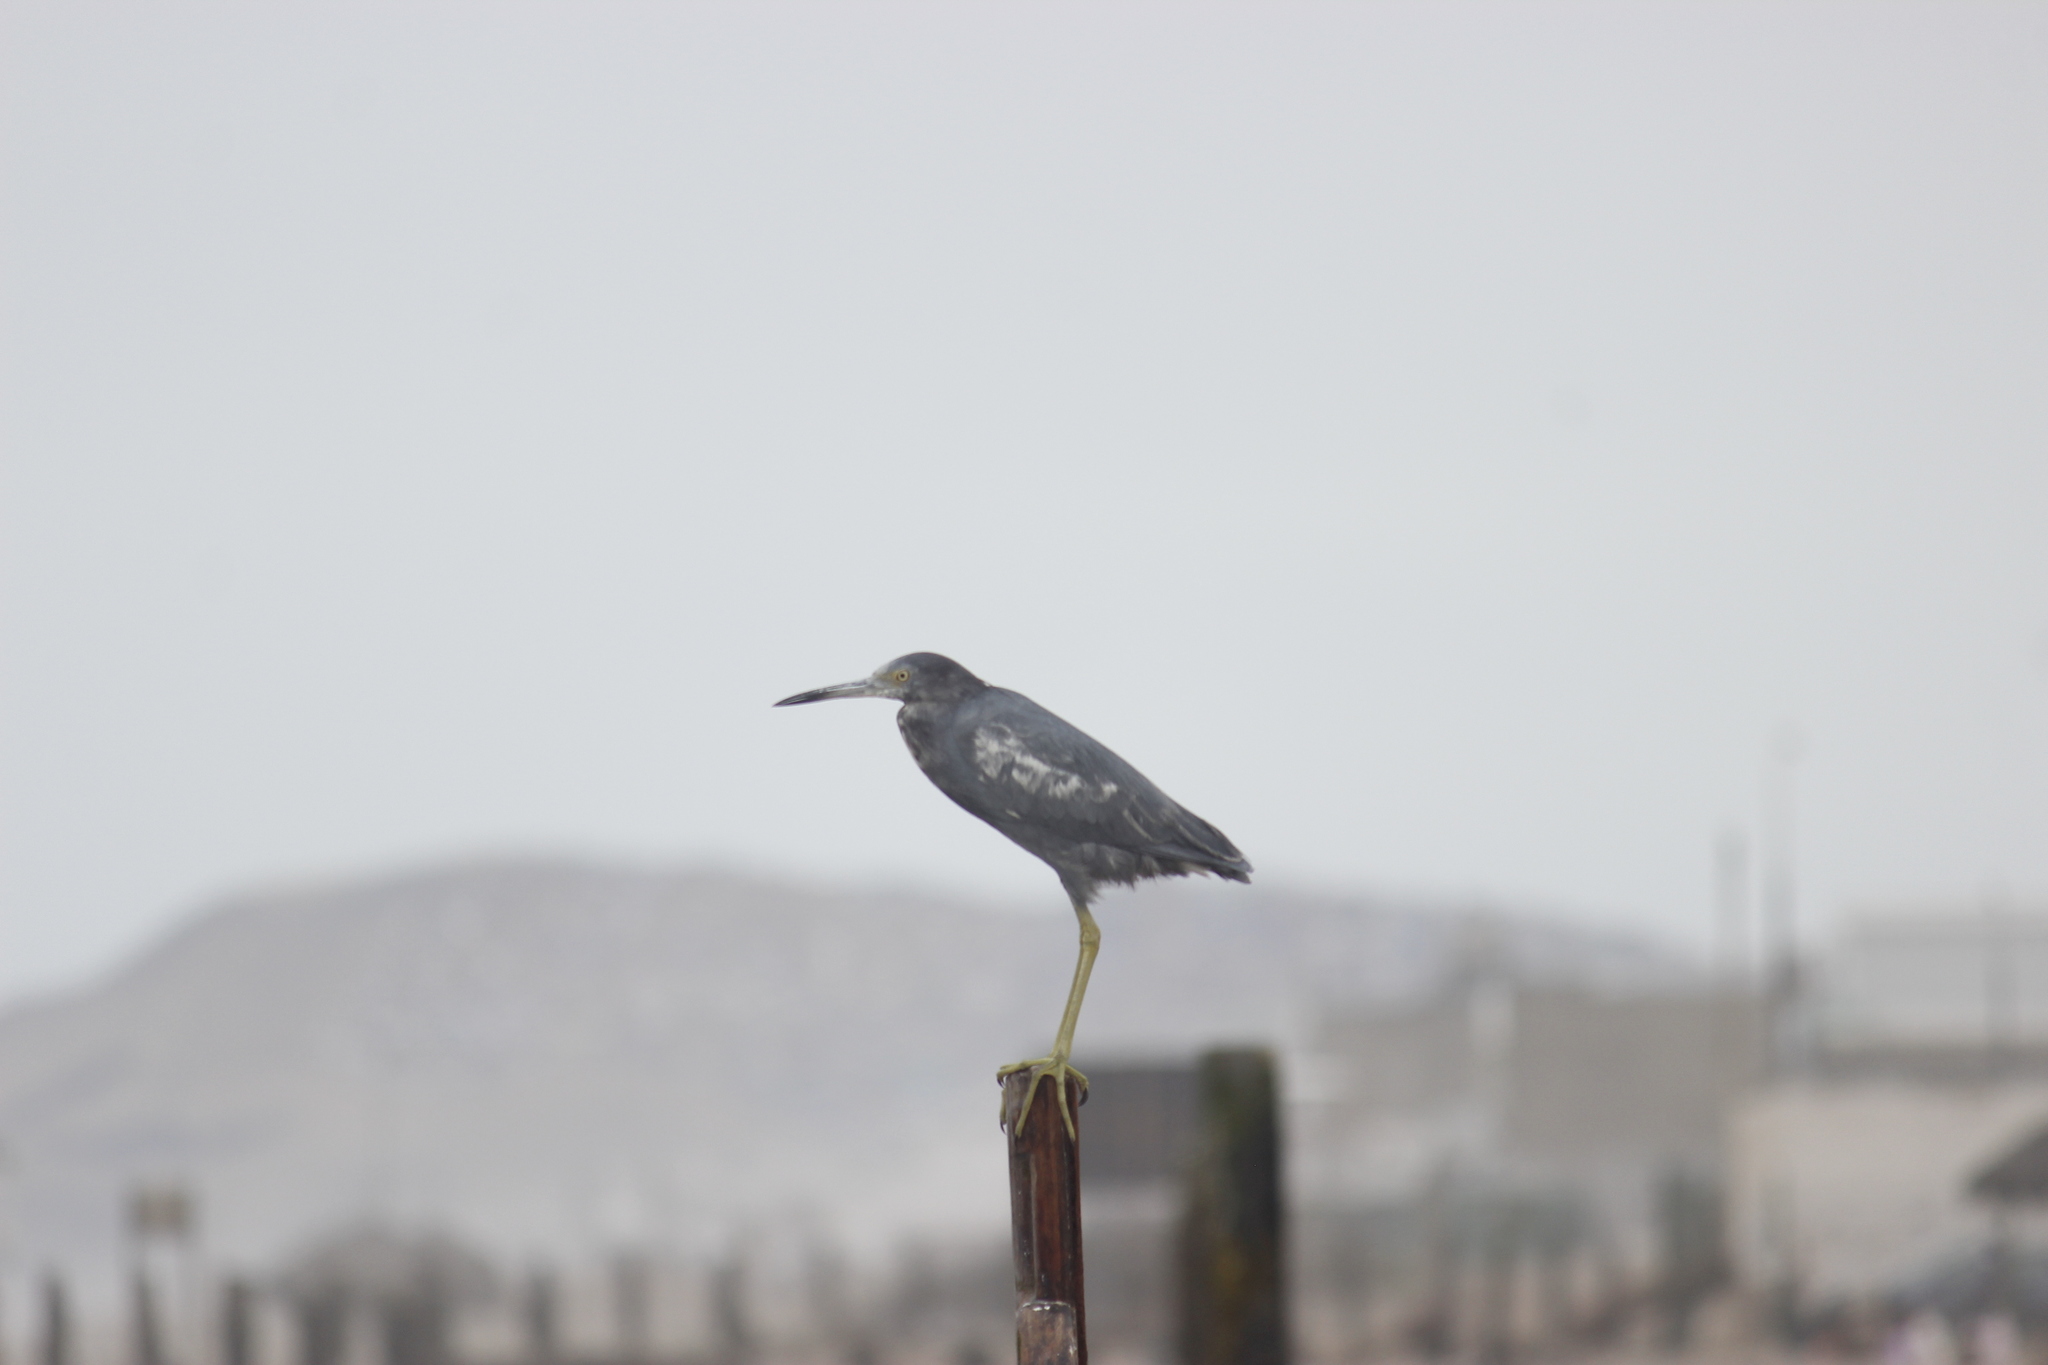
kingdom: Animalia
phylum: Chordata
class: Aves
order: Pelecaniformes
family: Ardeidae
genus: Egretta
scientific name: Egretta caerulea
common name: Little blue heron
